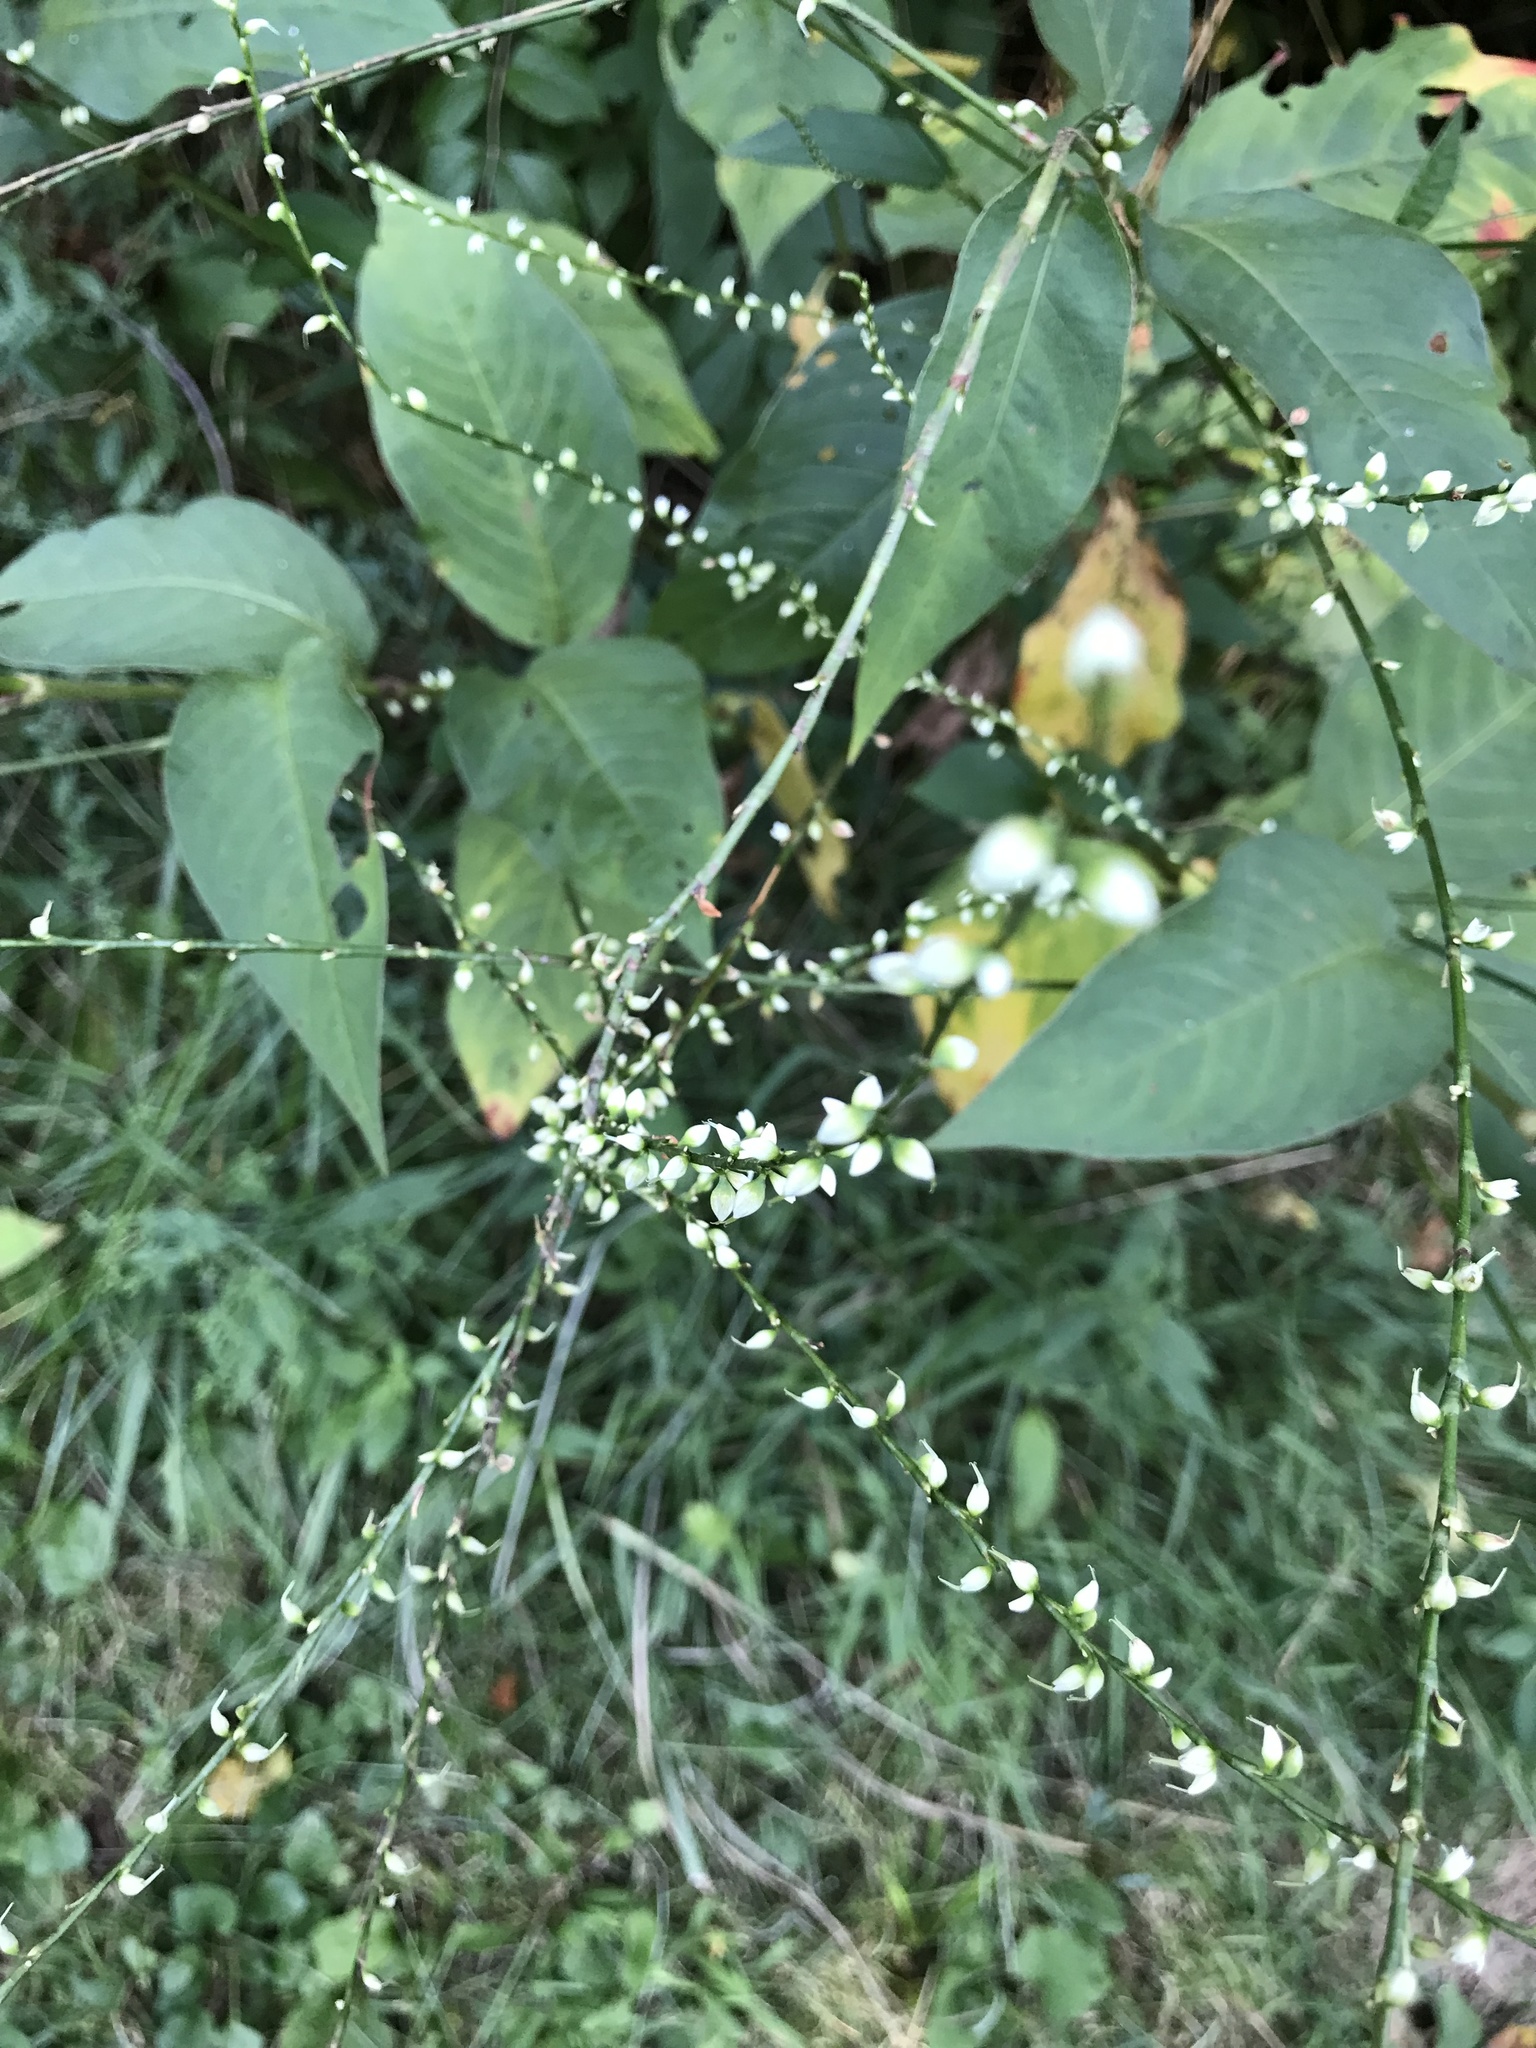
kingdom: Plantae
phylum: Tracheophyta
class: Magnoliopsida
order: Caryophyllales
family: Polygonaceae
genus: Persicaria
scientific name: Persicaria virginiana
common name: Jumpseed
